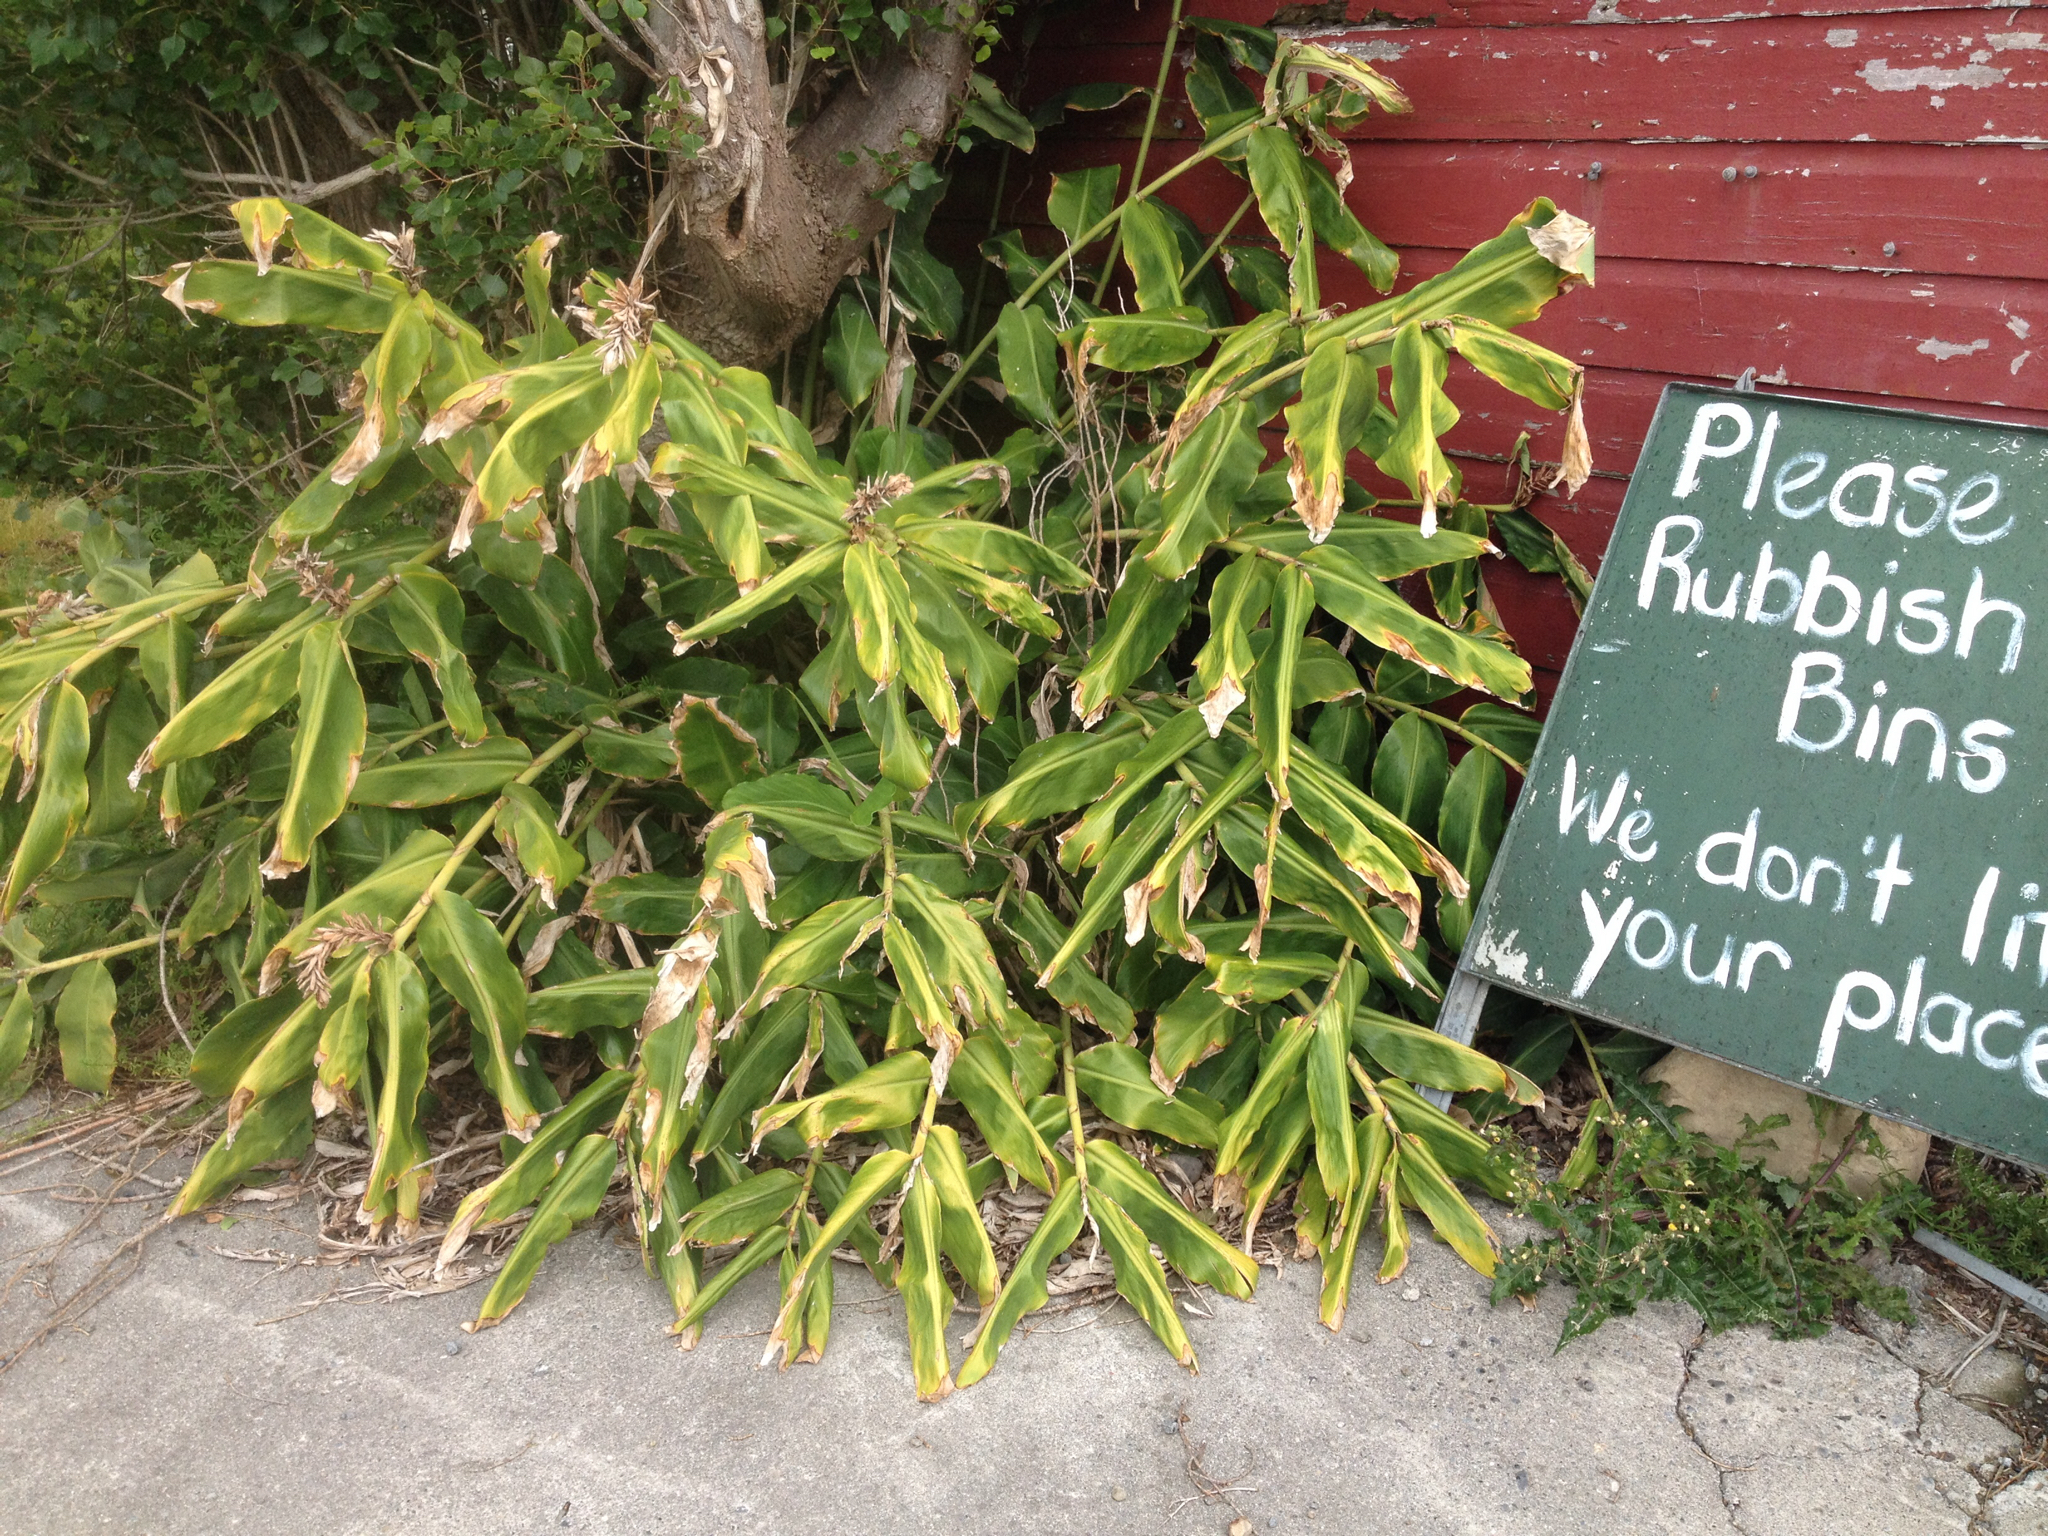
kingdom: Plantae
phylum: Tracheophyta
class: Liliopsida
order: Zingiberales
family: Zingiberaceae
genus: Hedychium
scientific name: Hedychium gardnerianum
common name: Himalayan ginger
